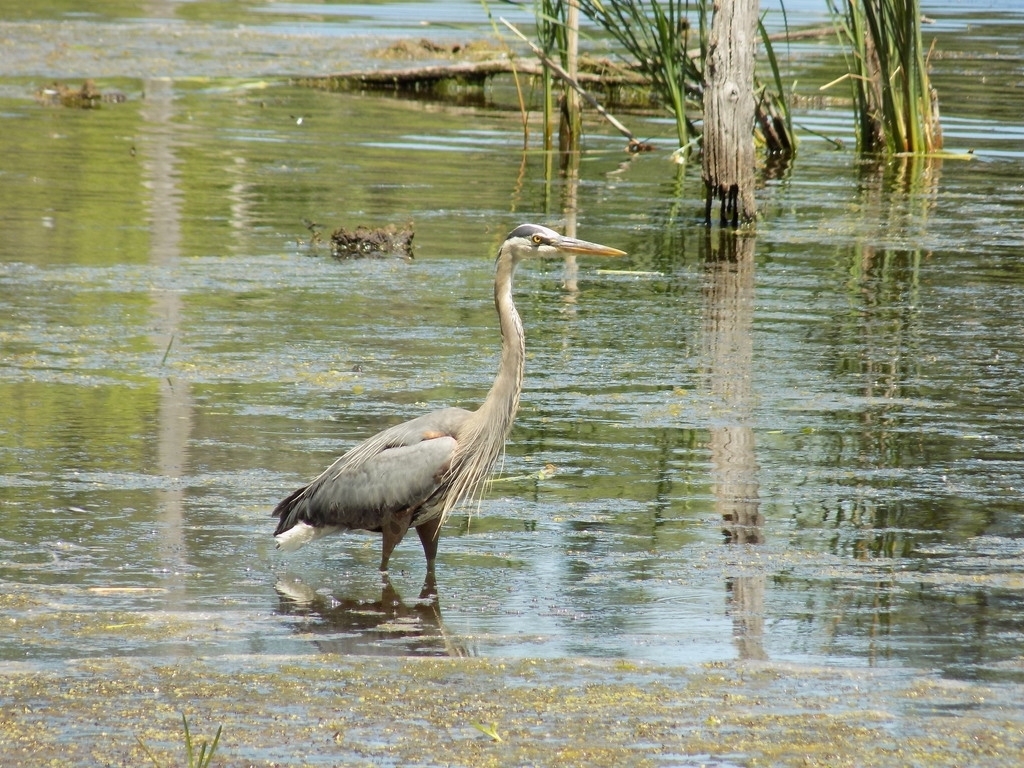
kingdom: Animalia
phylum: Chordata
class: Aves
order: Pelecaniformes
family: Ardeidae
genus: Ardea
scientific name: Ardea herodias
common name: Great blue heron
